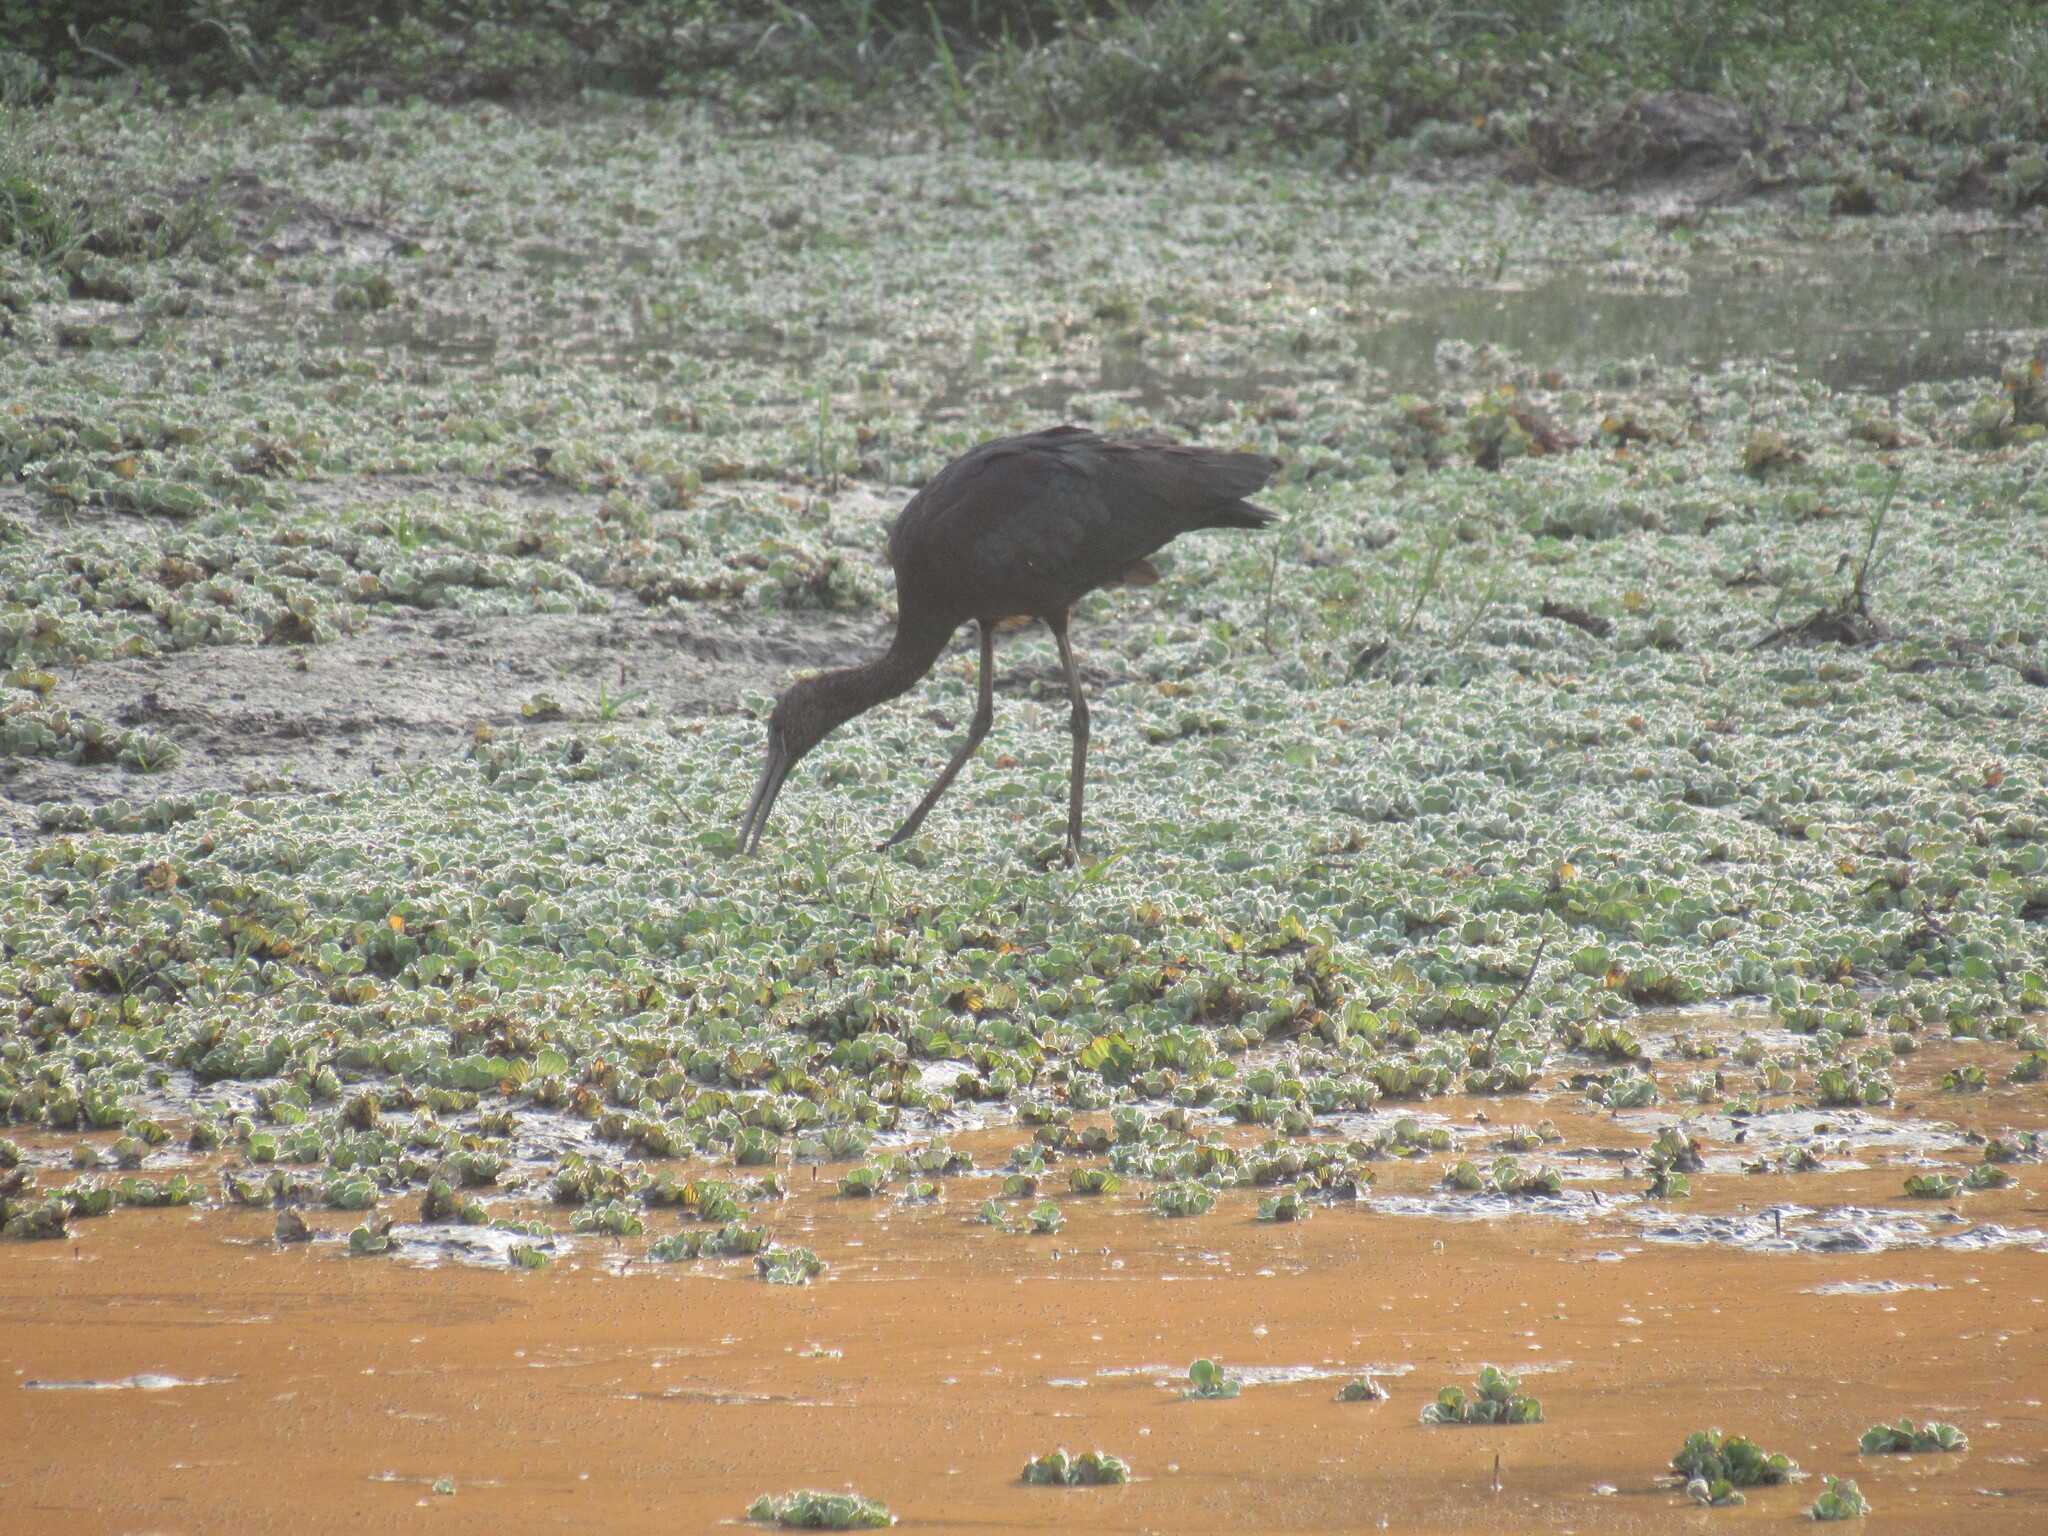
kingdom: Animalia
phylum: Chordata
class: Aves
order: Pelecaniformes
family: Threskiornithidae
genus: Plegadis
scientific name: Plegadis falcinellus
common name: Glossy ibis
